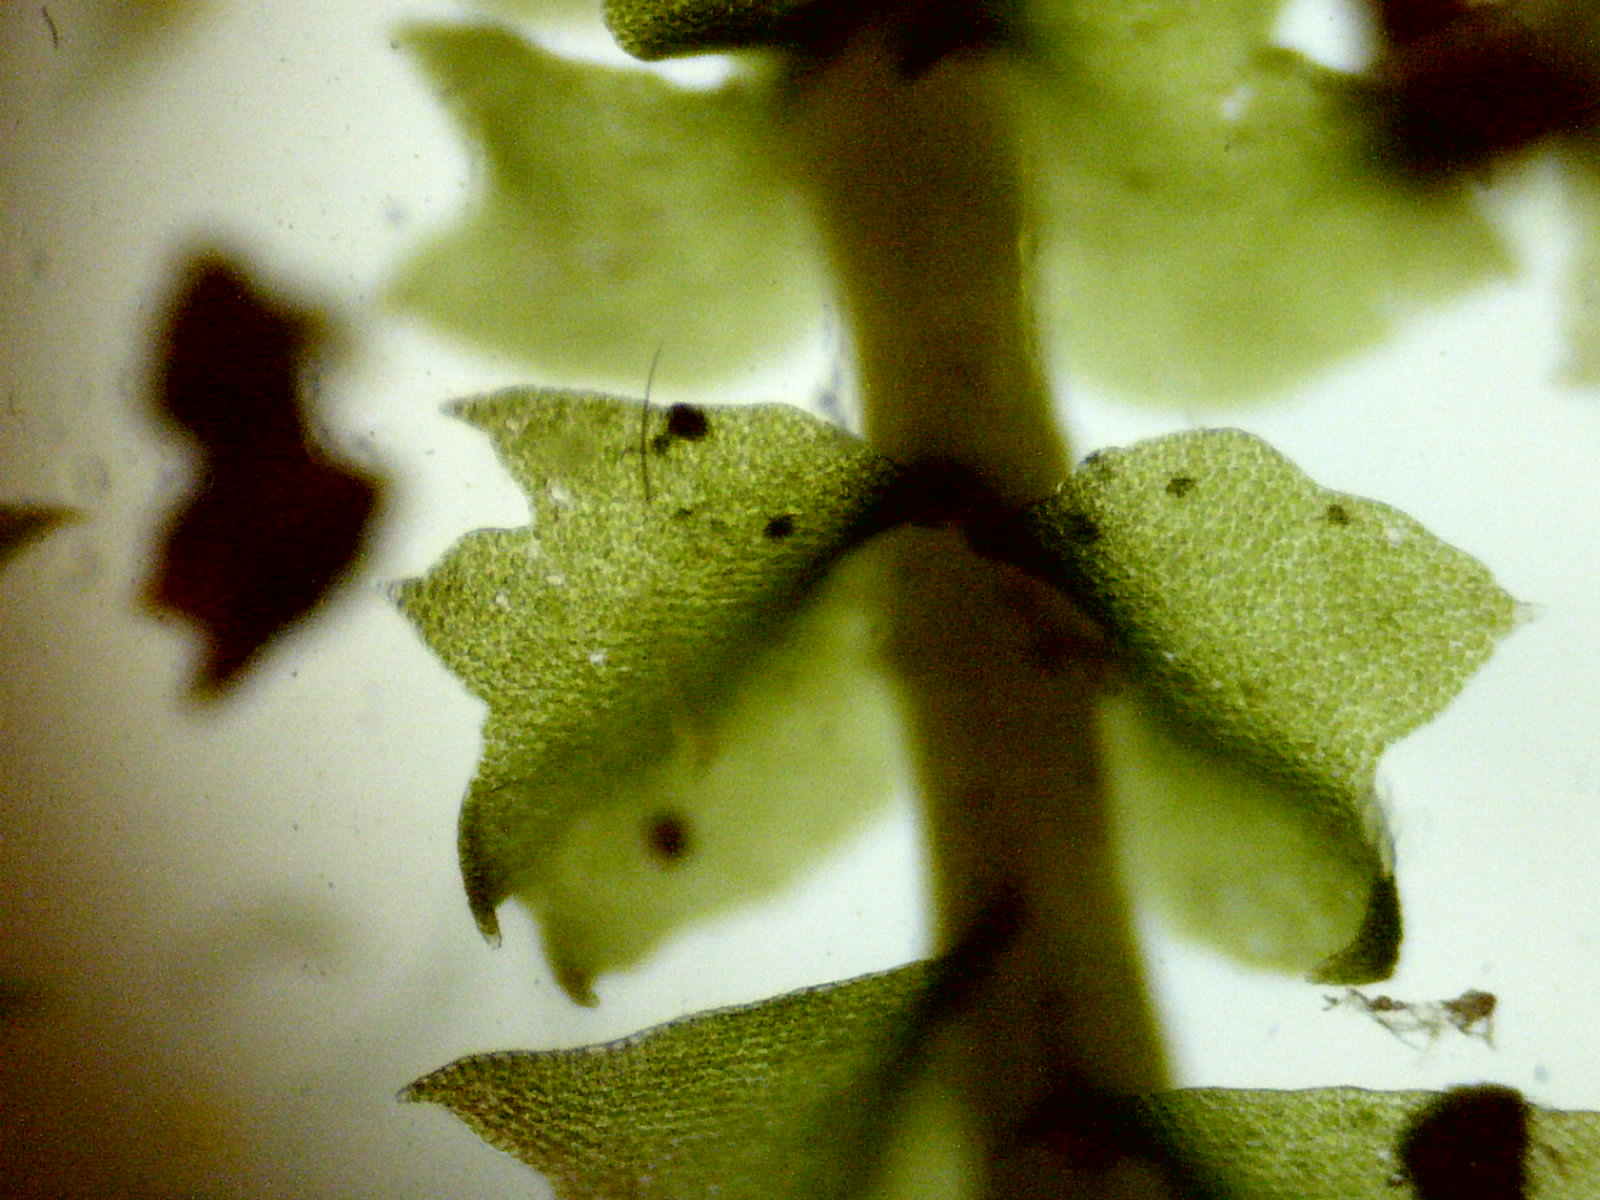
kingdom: Plantae
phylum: Marchantiophyta
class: Jungermanniopsida
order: Jungermanniales
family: Anastrophyllaceae
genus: Neoorthocaulis
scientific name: Neoorthocaulis attenuatus
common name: Trunk pawwort
